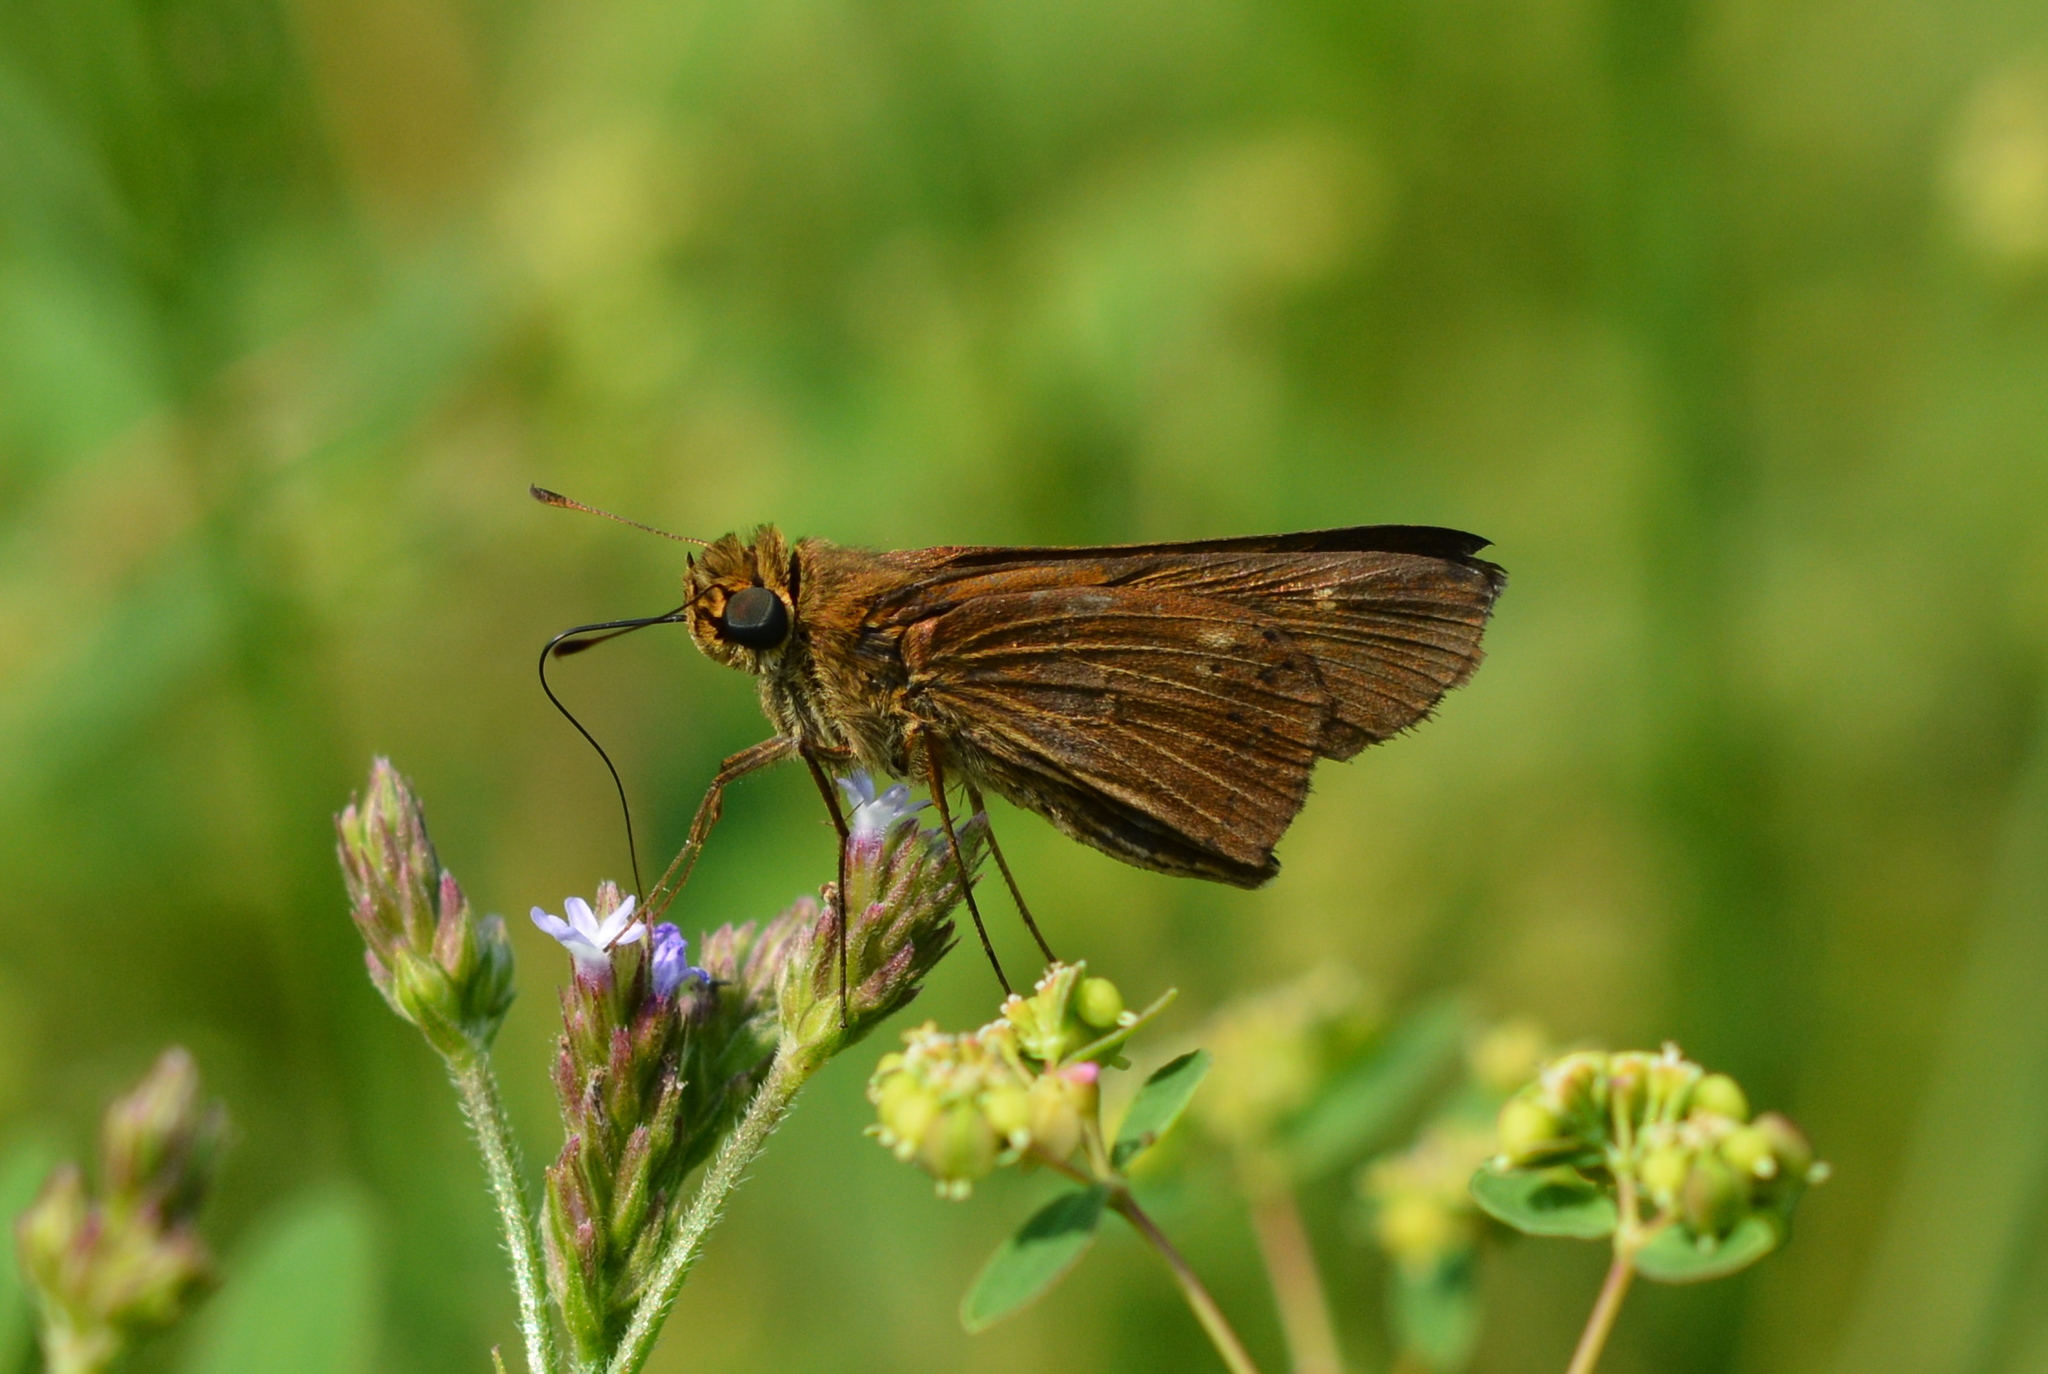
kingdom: Animalia
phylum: Arthropoda
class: Insecta
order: Lepidoptera
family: Hesperiidae
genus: Panoquina
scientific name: Panoquina ocola
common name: Ocola skipper
